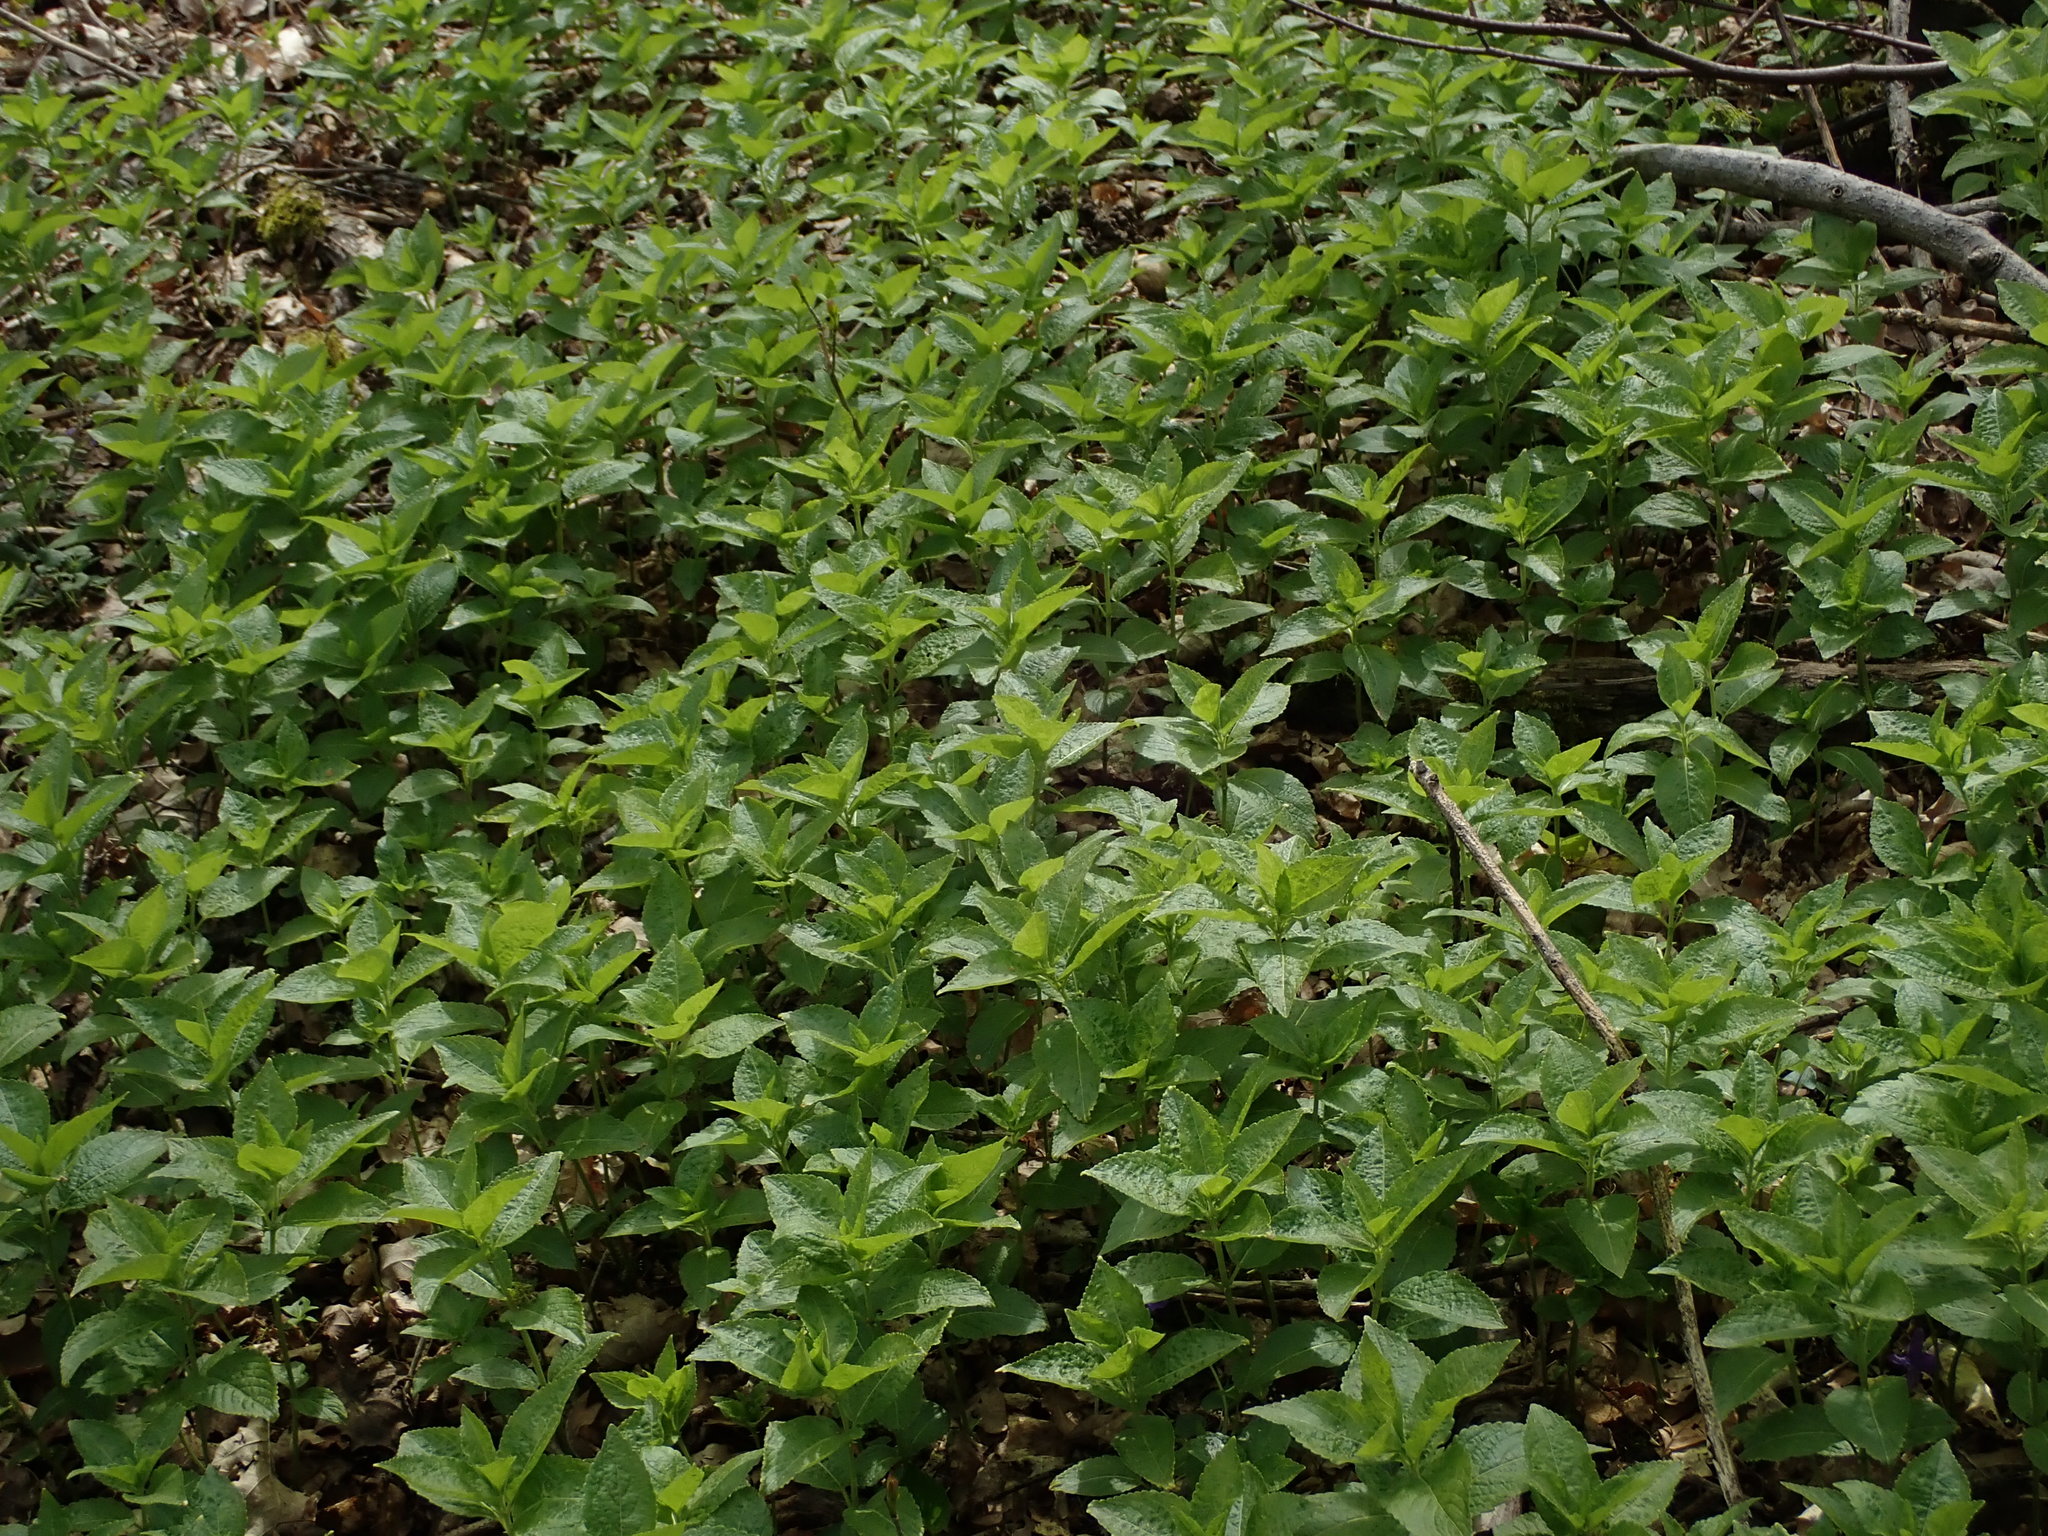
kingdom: Plantae
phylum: Tracheophyta
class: Magnoliopsida
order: Malpighiales
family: Euphorbiaceae
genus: Mercurialis
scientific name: Mercurialis perennis
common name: Dog mercury
